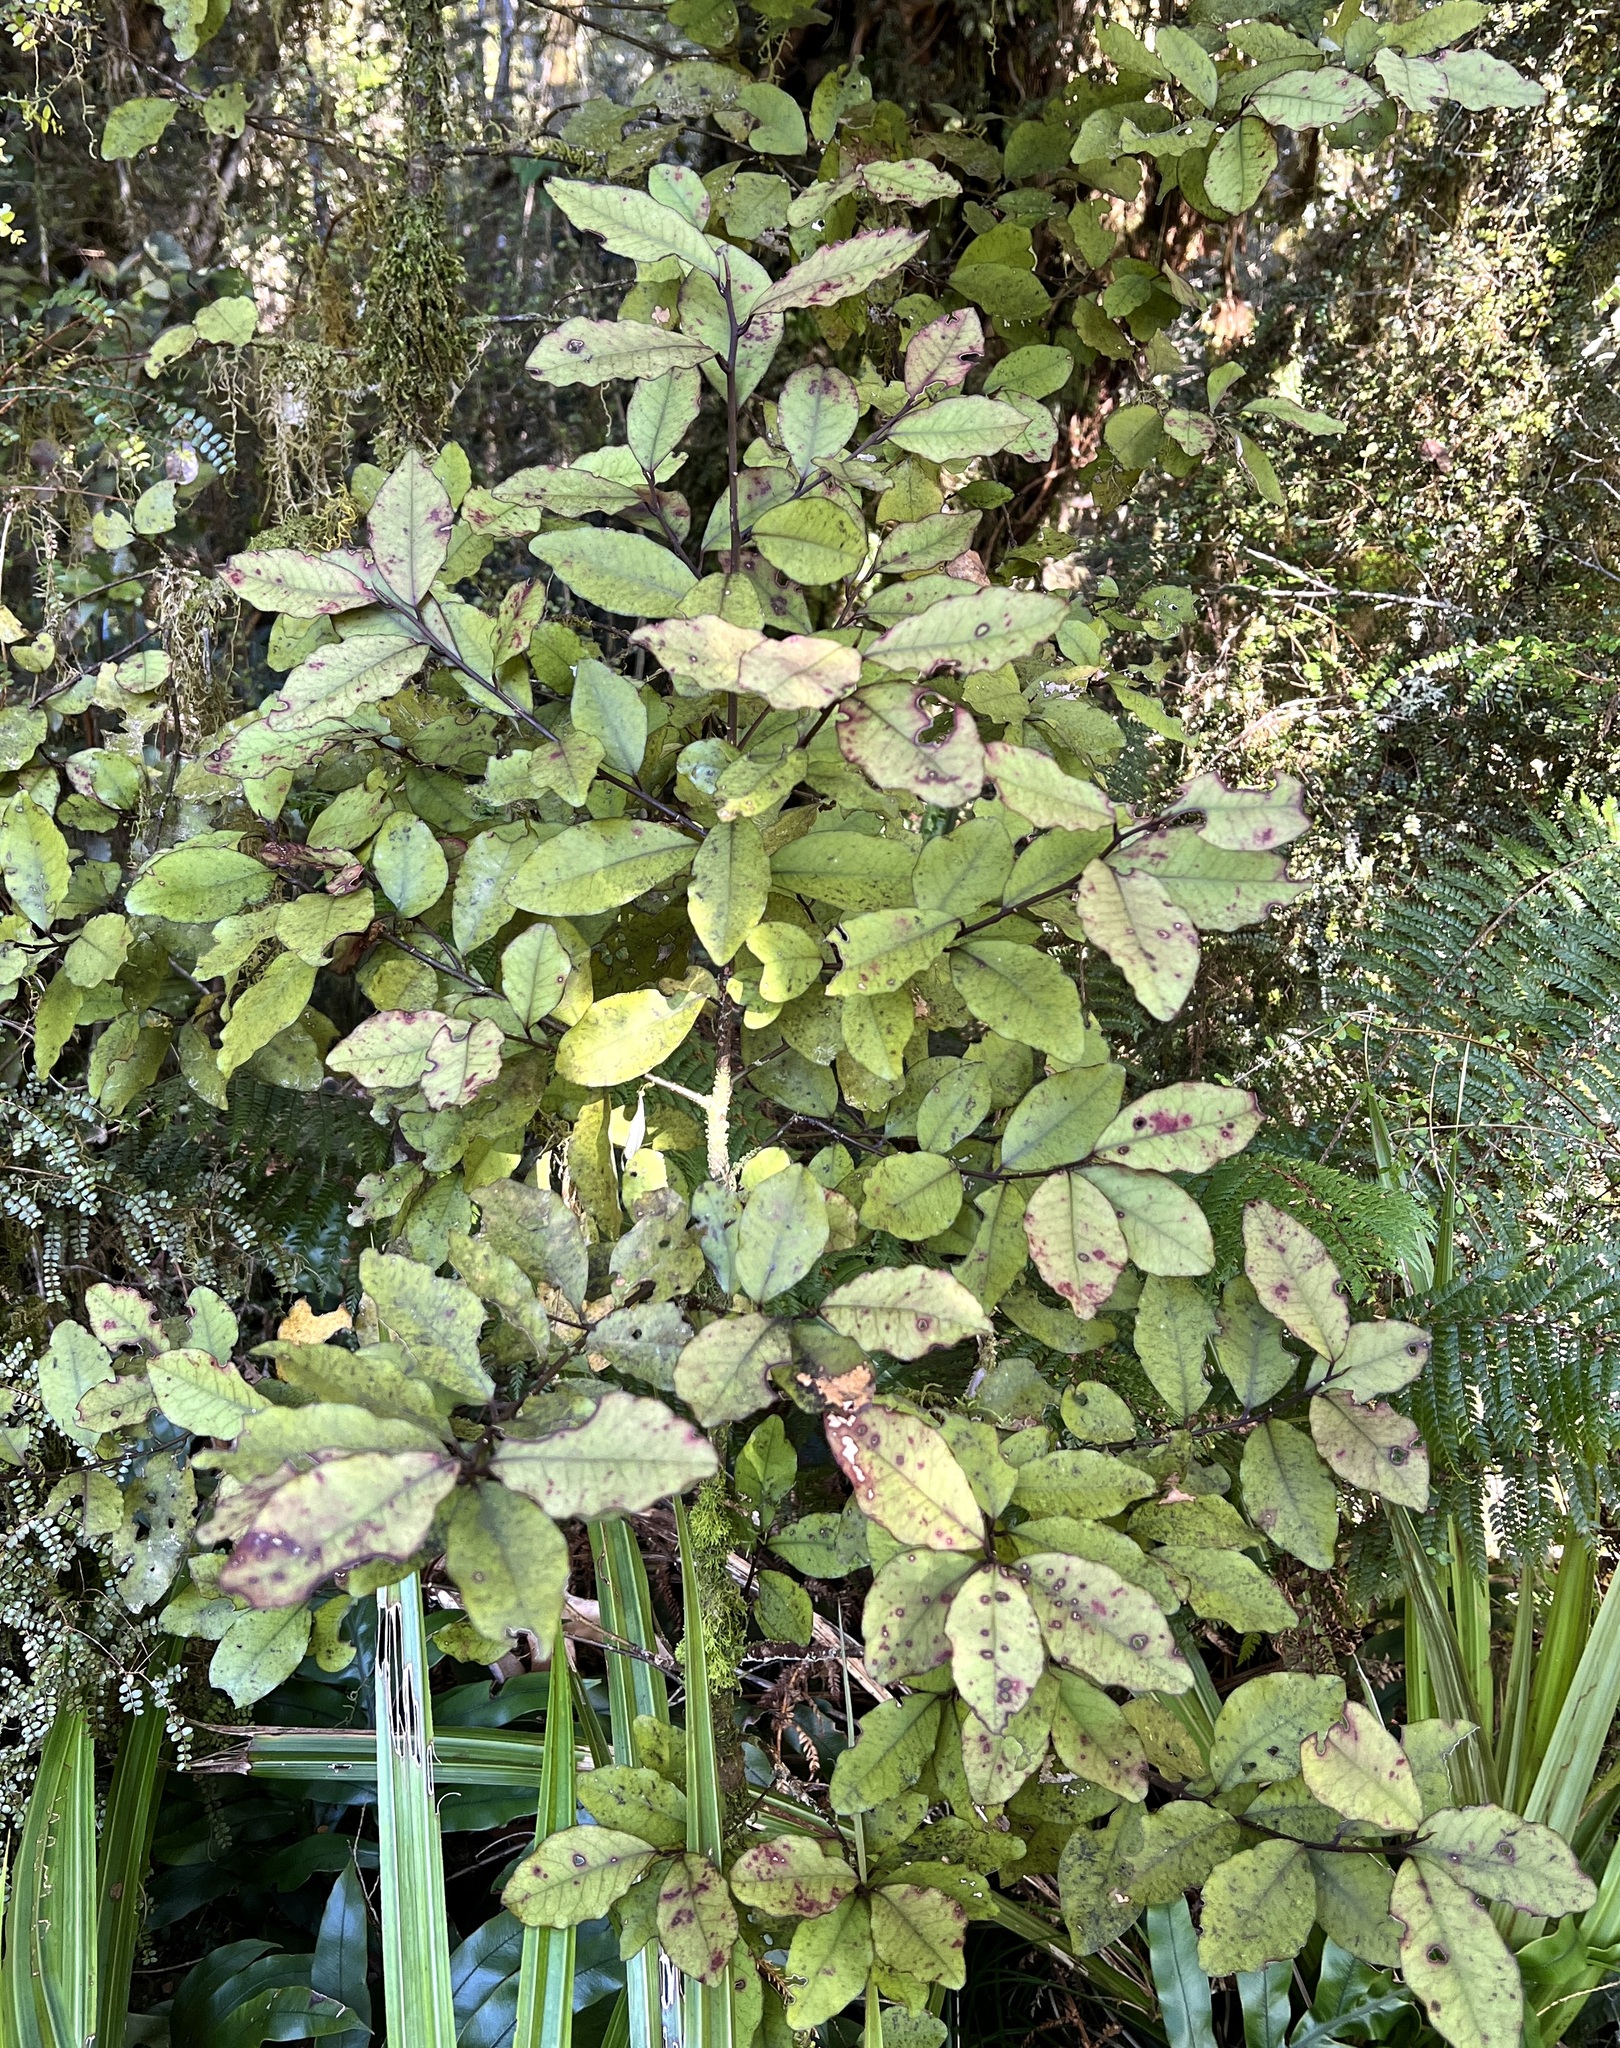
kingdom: Plantae
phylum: Tracheophyta
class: Magnoliopsida
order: Canellales
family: Winteraceae
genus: Pseudowintera
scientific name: Pseudowintera colorata
